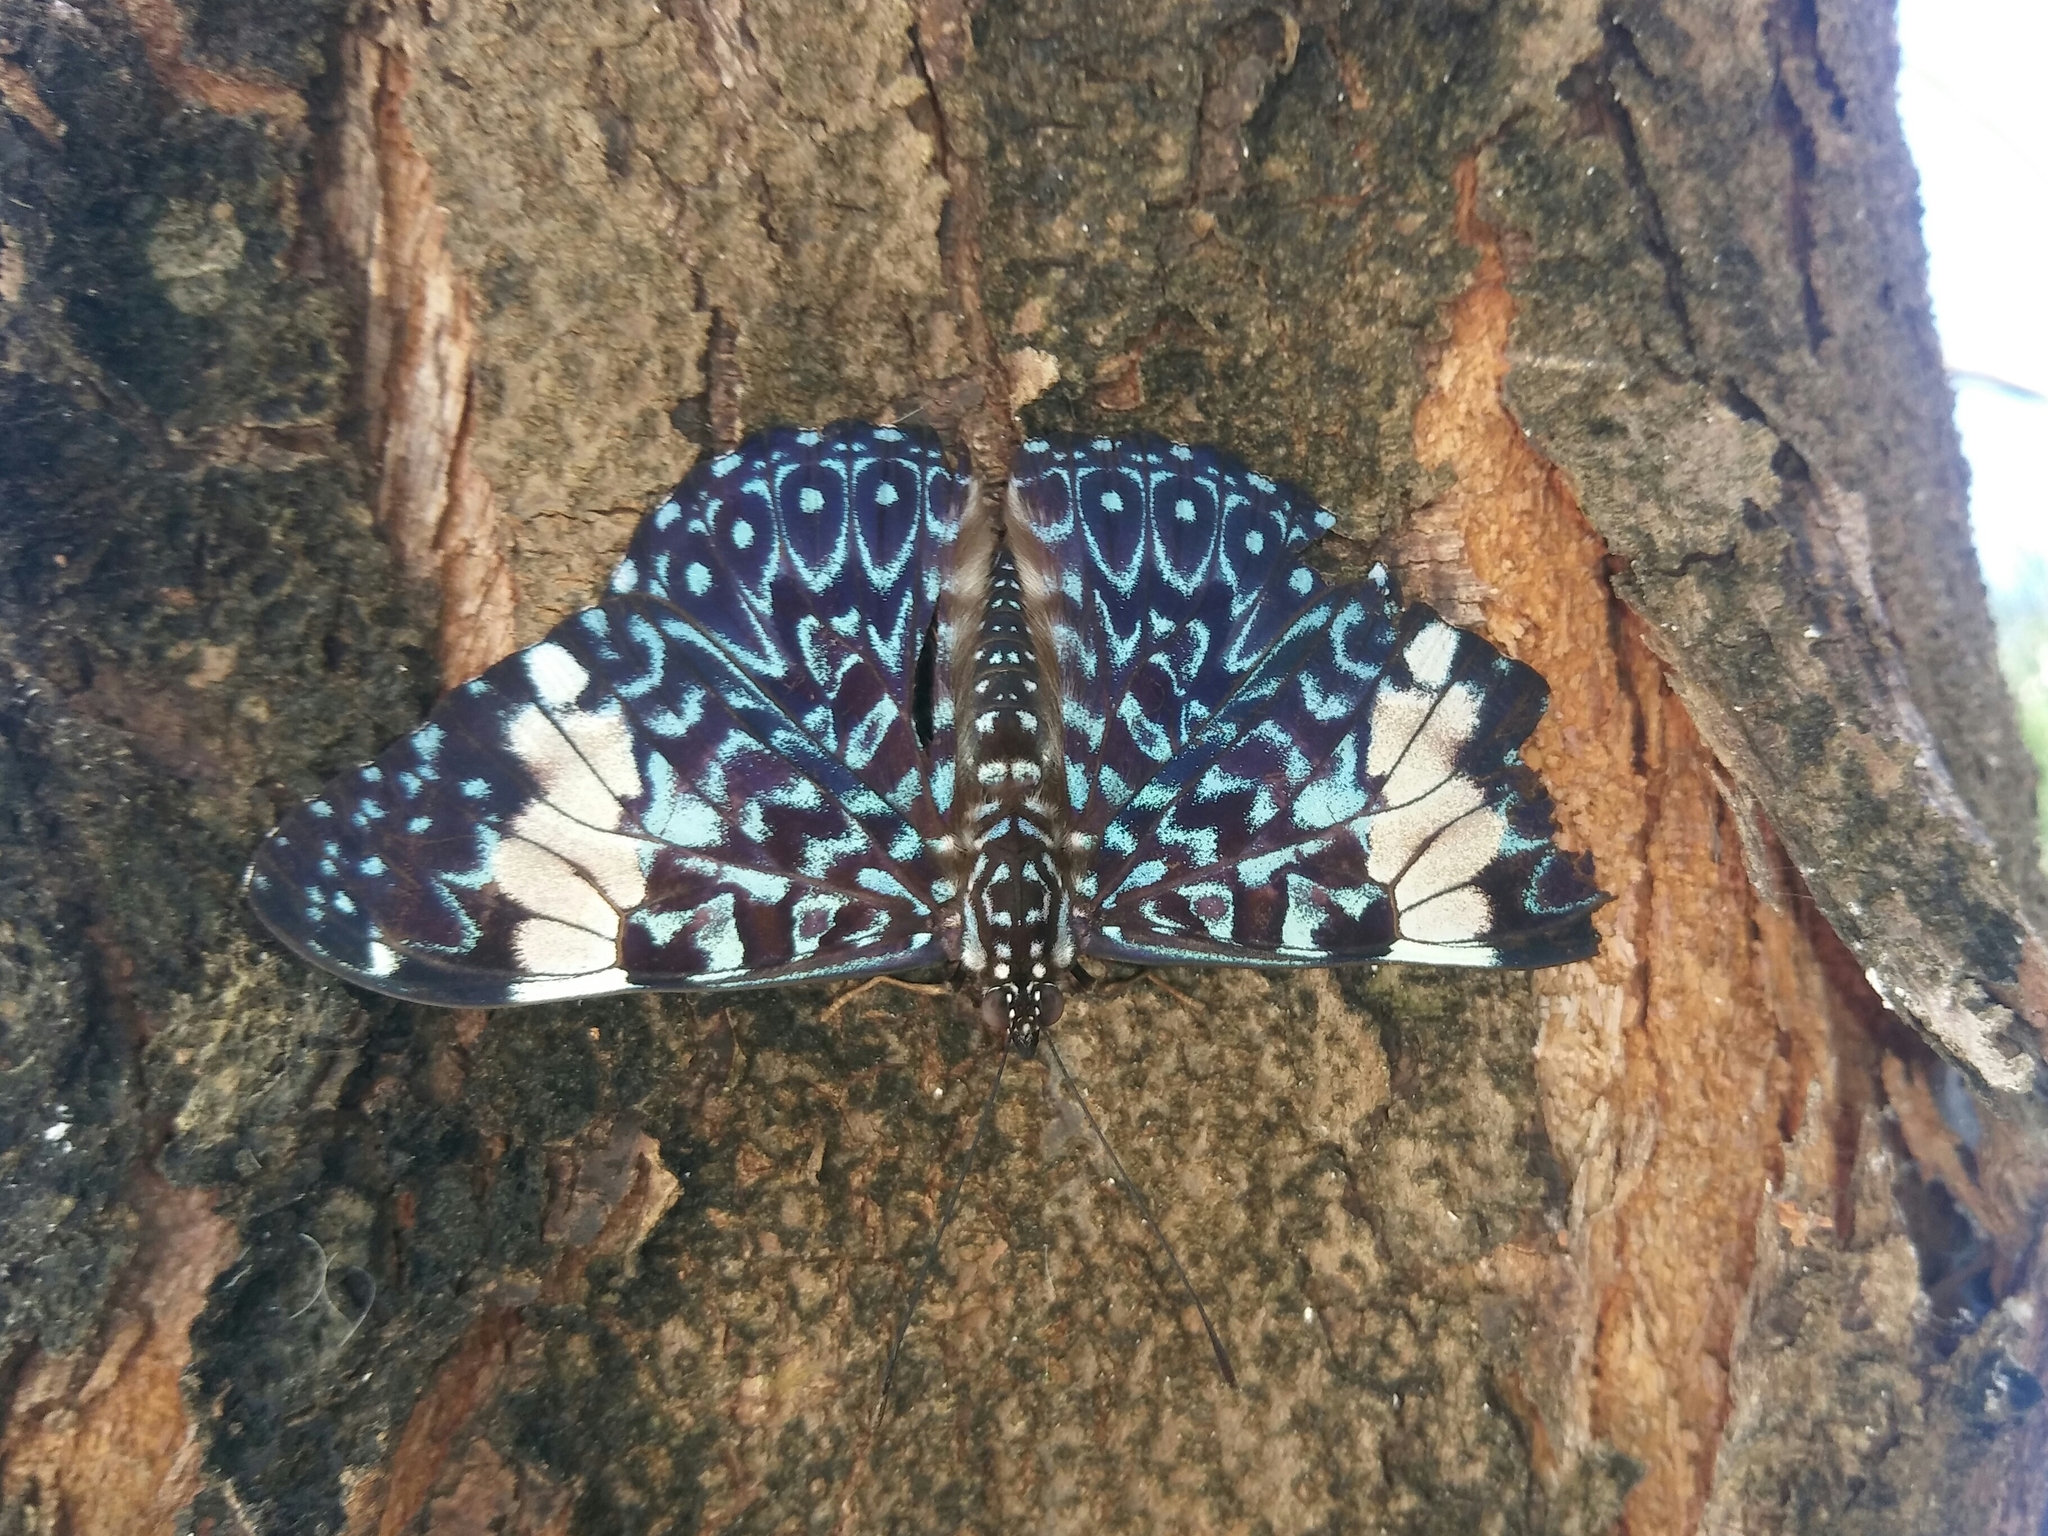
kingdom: Animalia
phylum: Arthropoda
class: Insecta
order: Lepidoptera
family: Nymphalidae
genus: Hamadryas
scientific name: Hamadryas amphinome
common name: Red cracker
